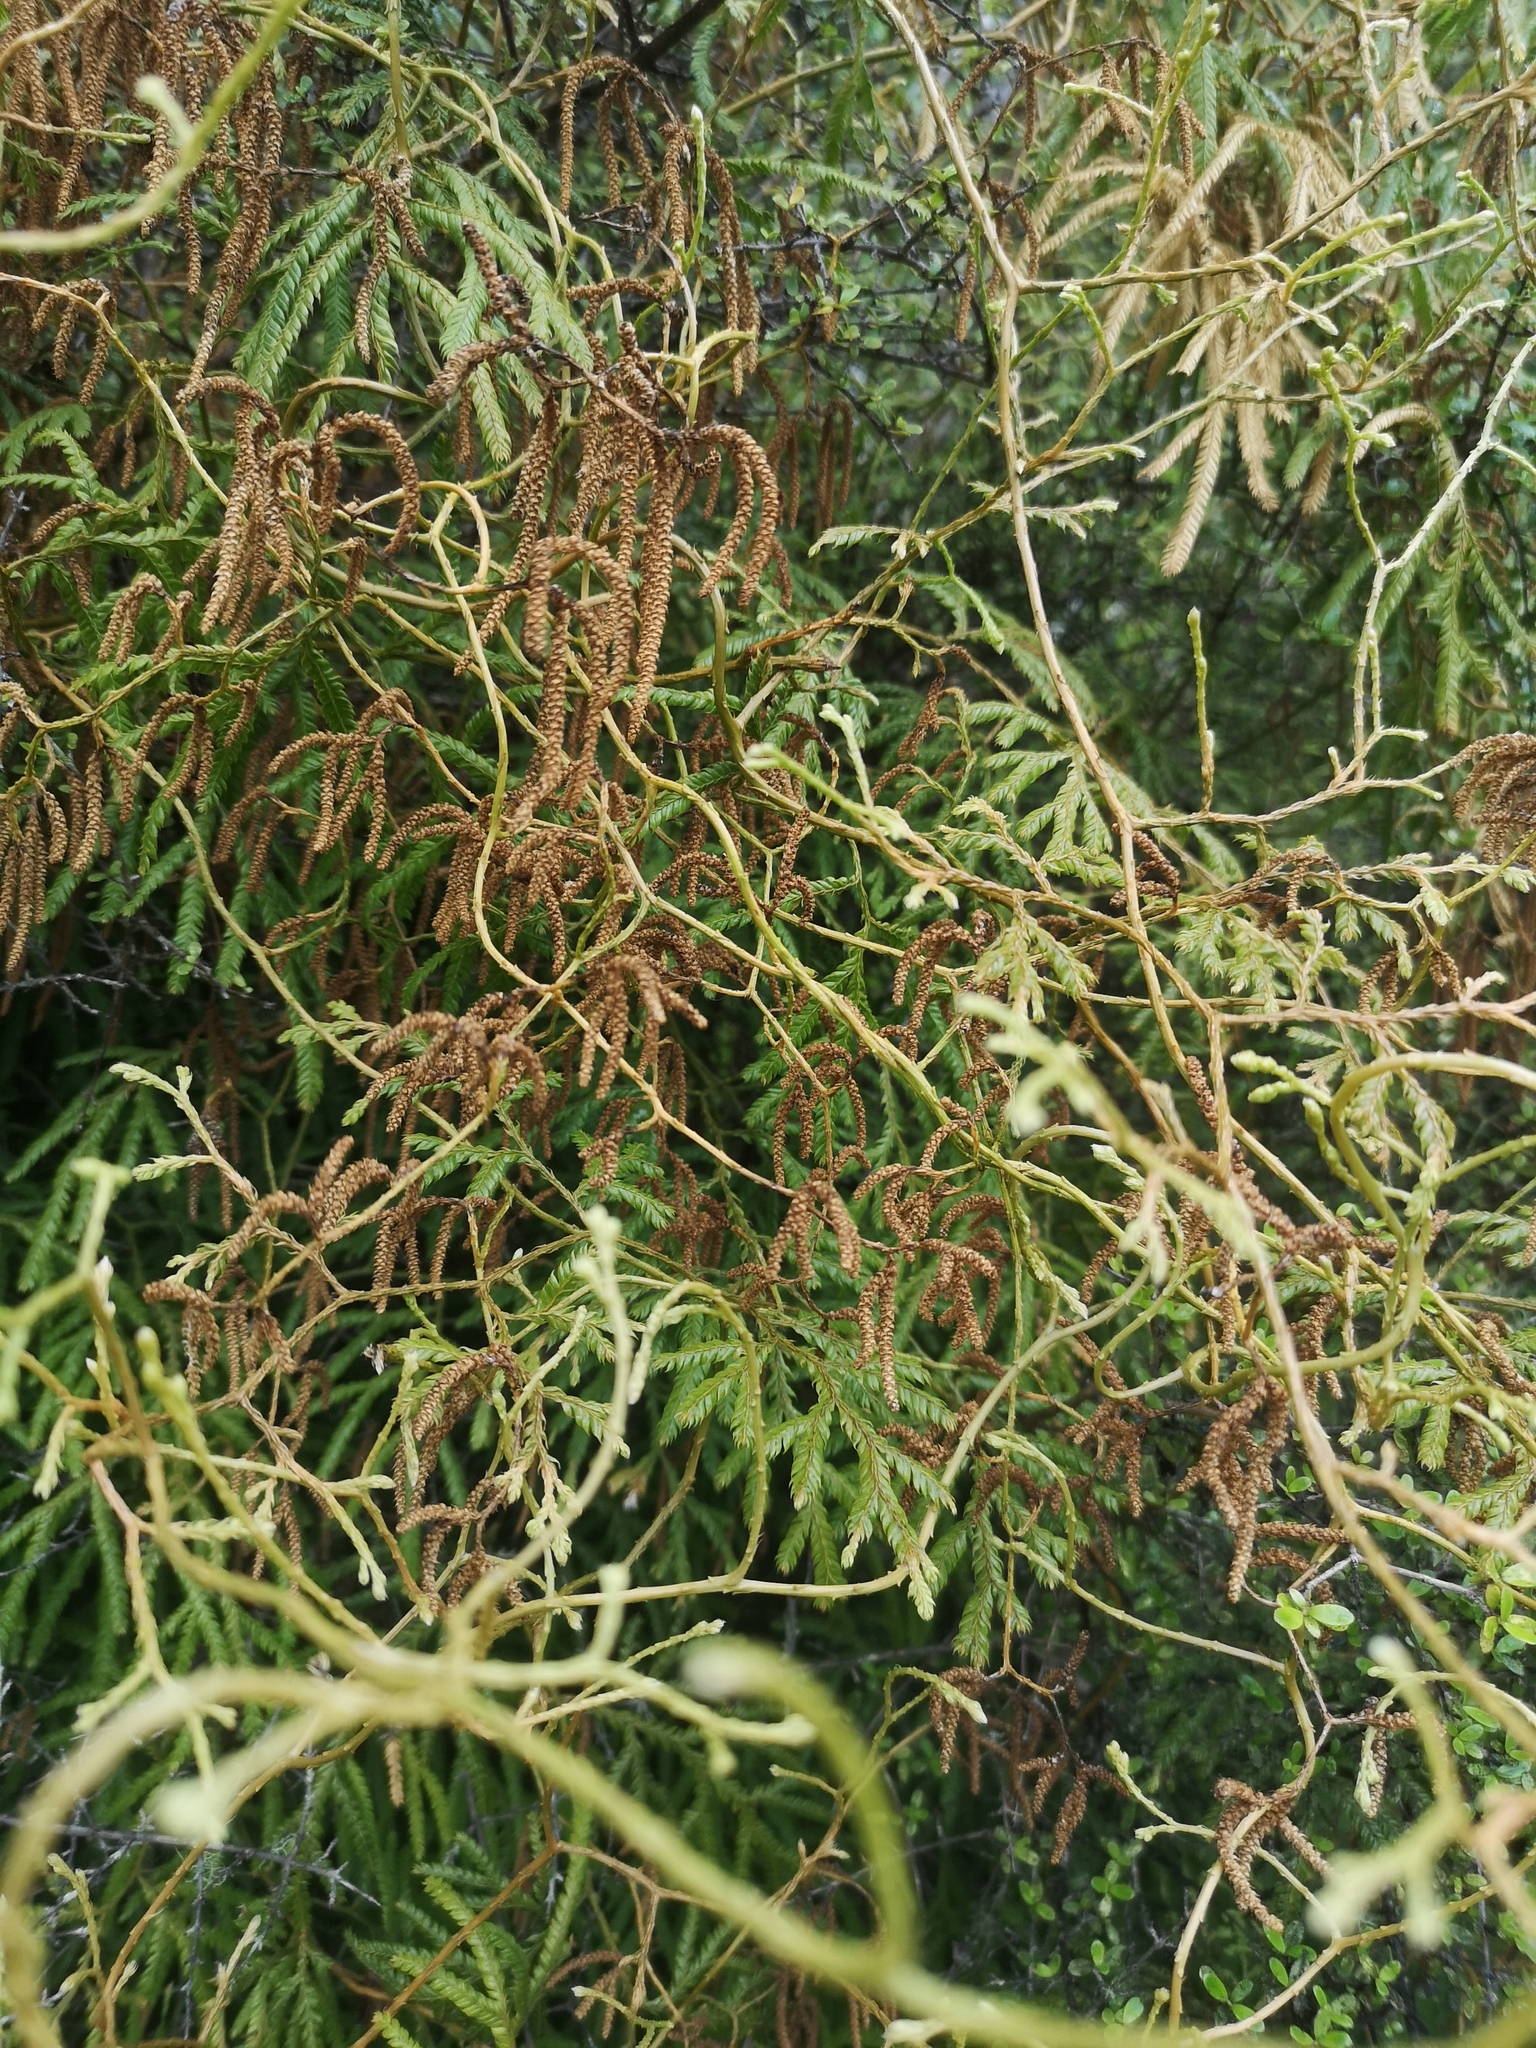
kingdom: Plantae
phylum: Tracheophyta
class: Lycopodiopsida
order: Lycopodiales
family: Lycopodiaceae
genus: Lycopodium
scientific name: Lycopodium volubile
